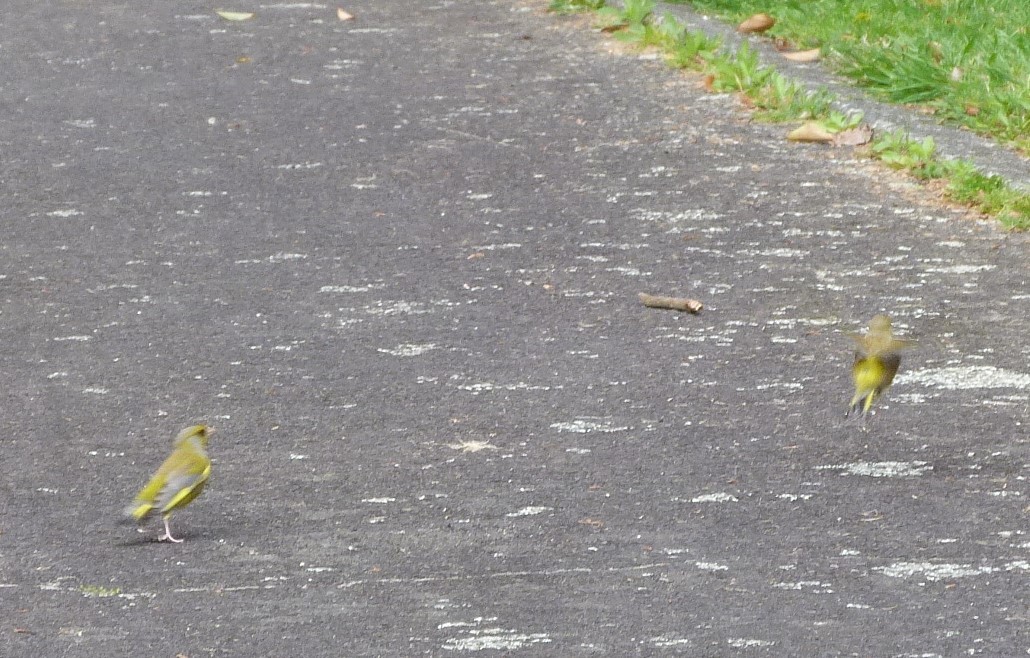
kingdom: Plantae
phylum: Tracheophyta
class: Liliopsida
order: Poales
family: Poaceae
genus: Chloris
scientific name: Chloris chloris
